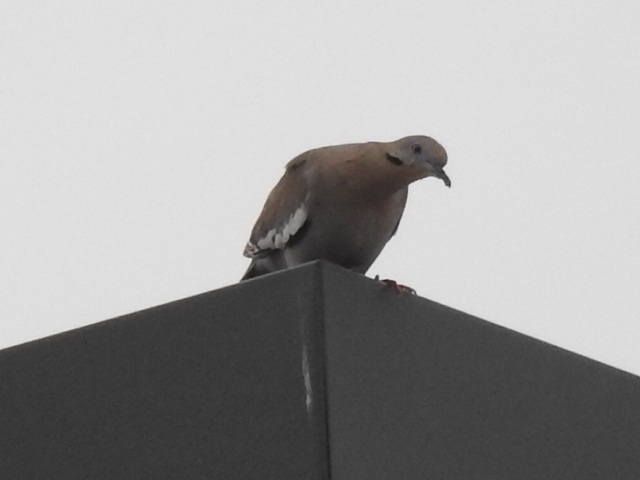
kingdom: Animalia
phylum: Chordata
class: Aves
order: Columbiformes
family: Columbidae
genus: Zenaida
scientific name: Zenaida asiatica
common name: White-winged dove
